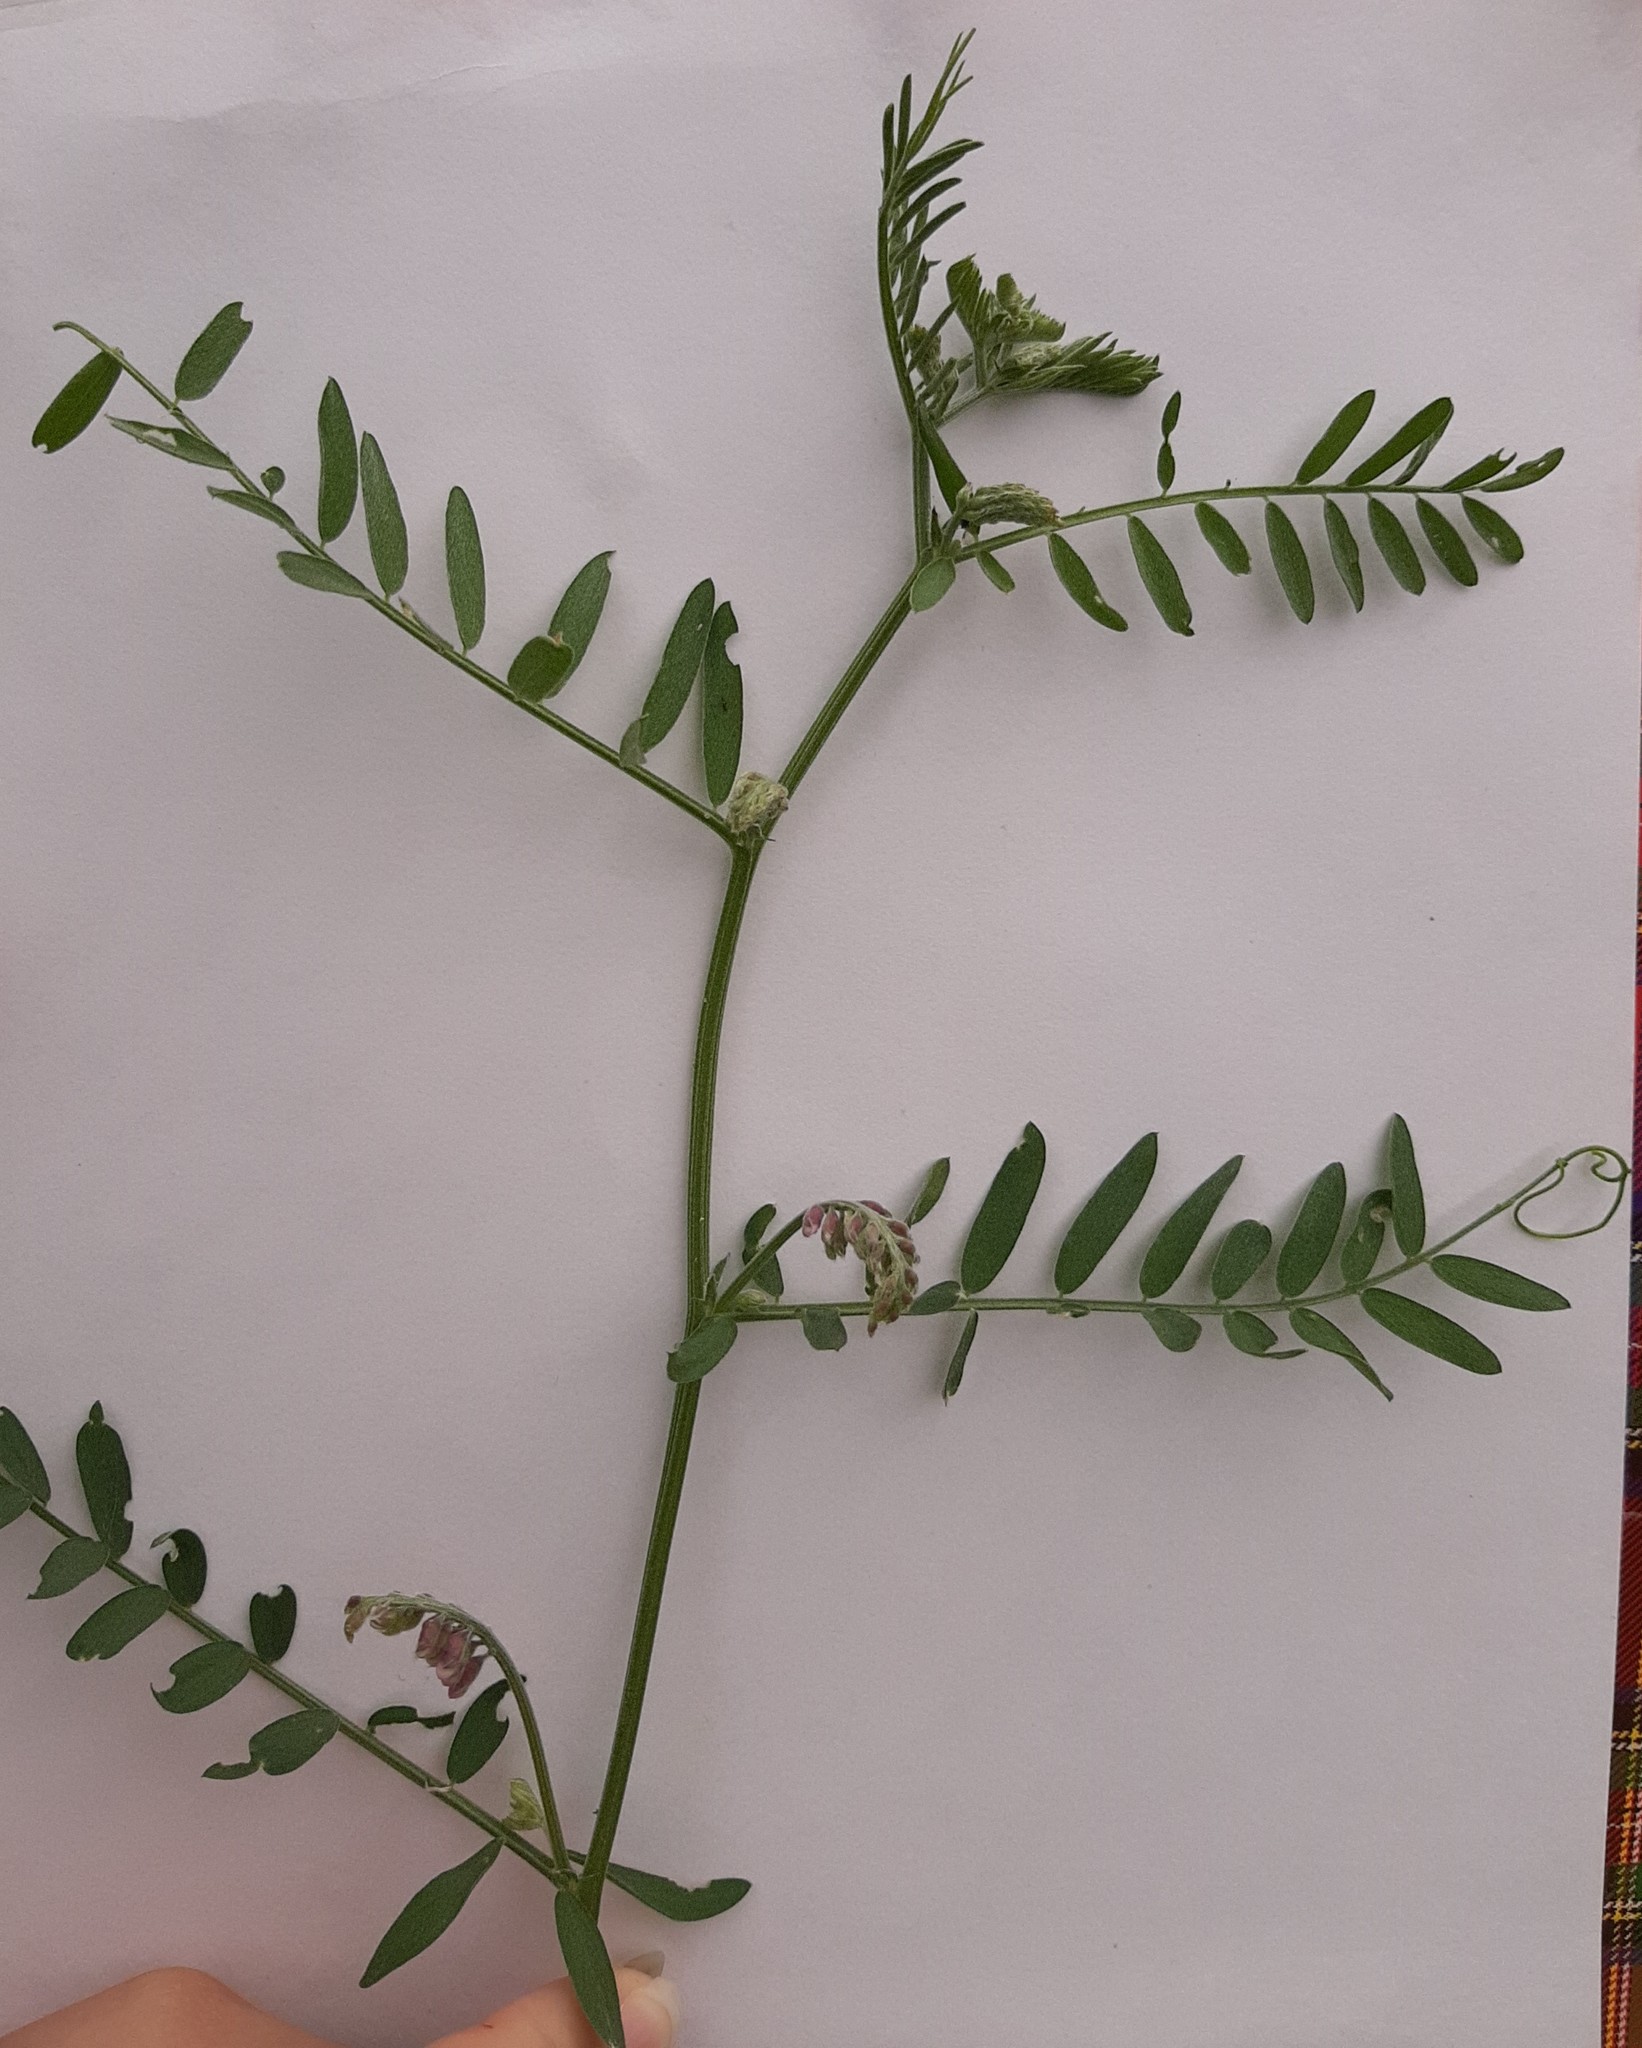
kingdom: Plantae
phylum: Tracheophyta
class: Magnoliopsida
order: Fabales
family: Fabaceae
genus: Vicia
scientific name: Vicia cracca
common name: Bird vetch
